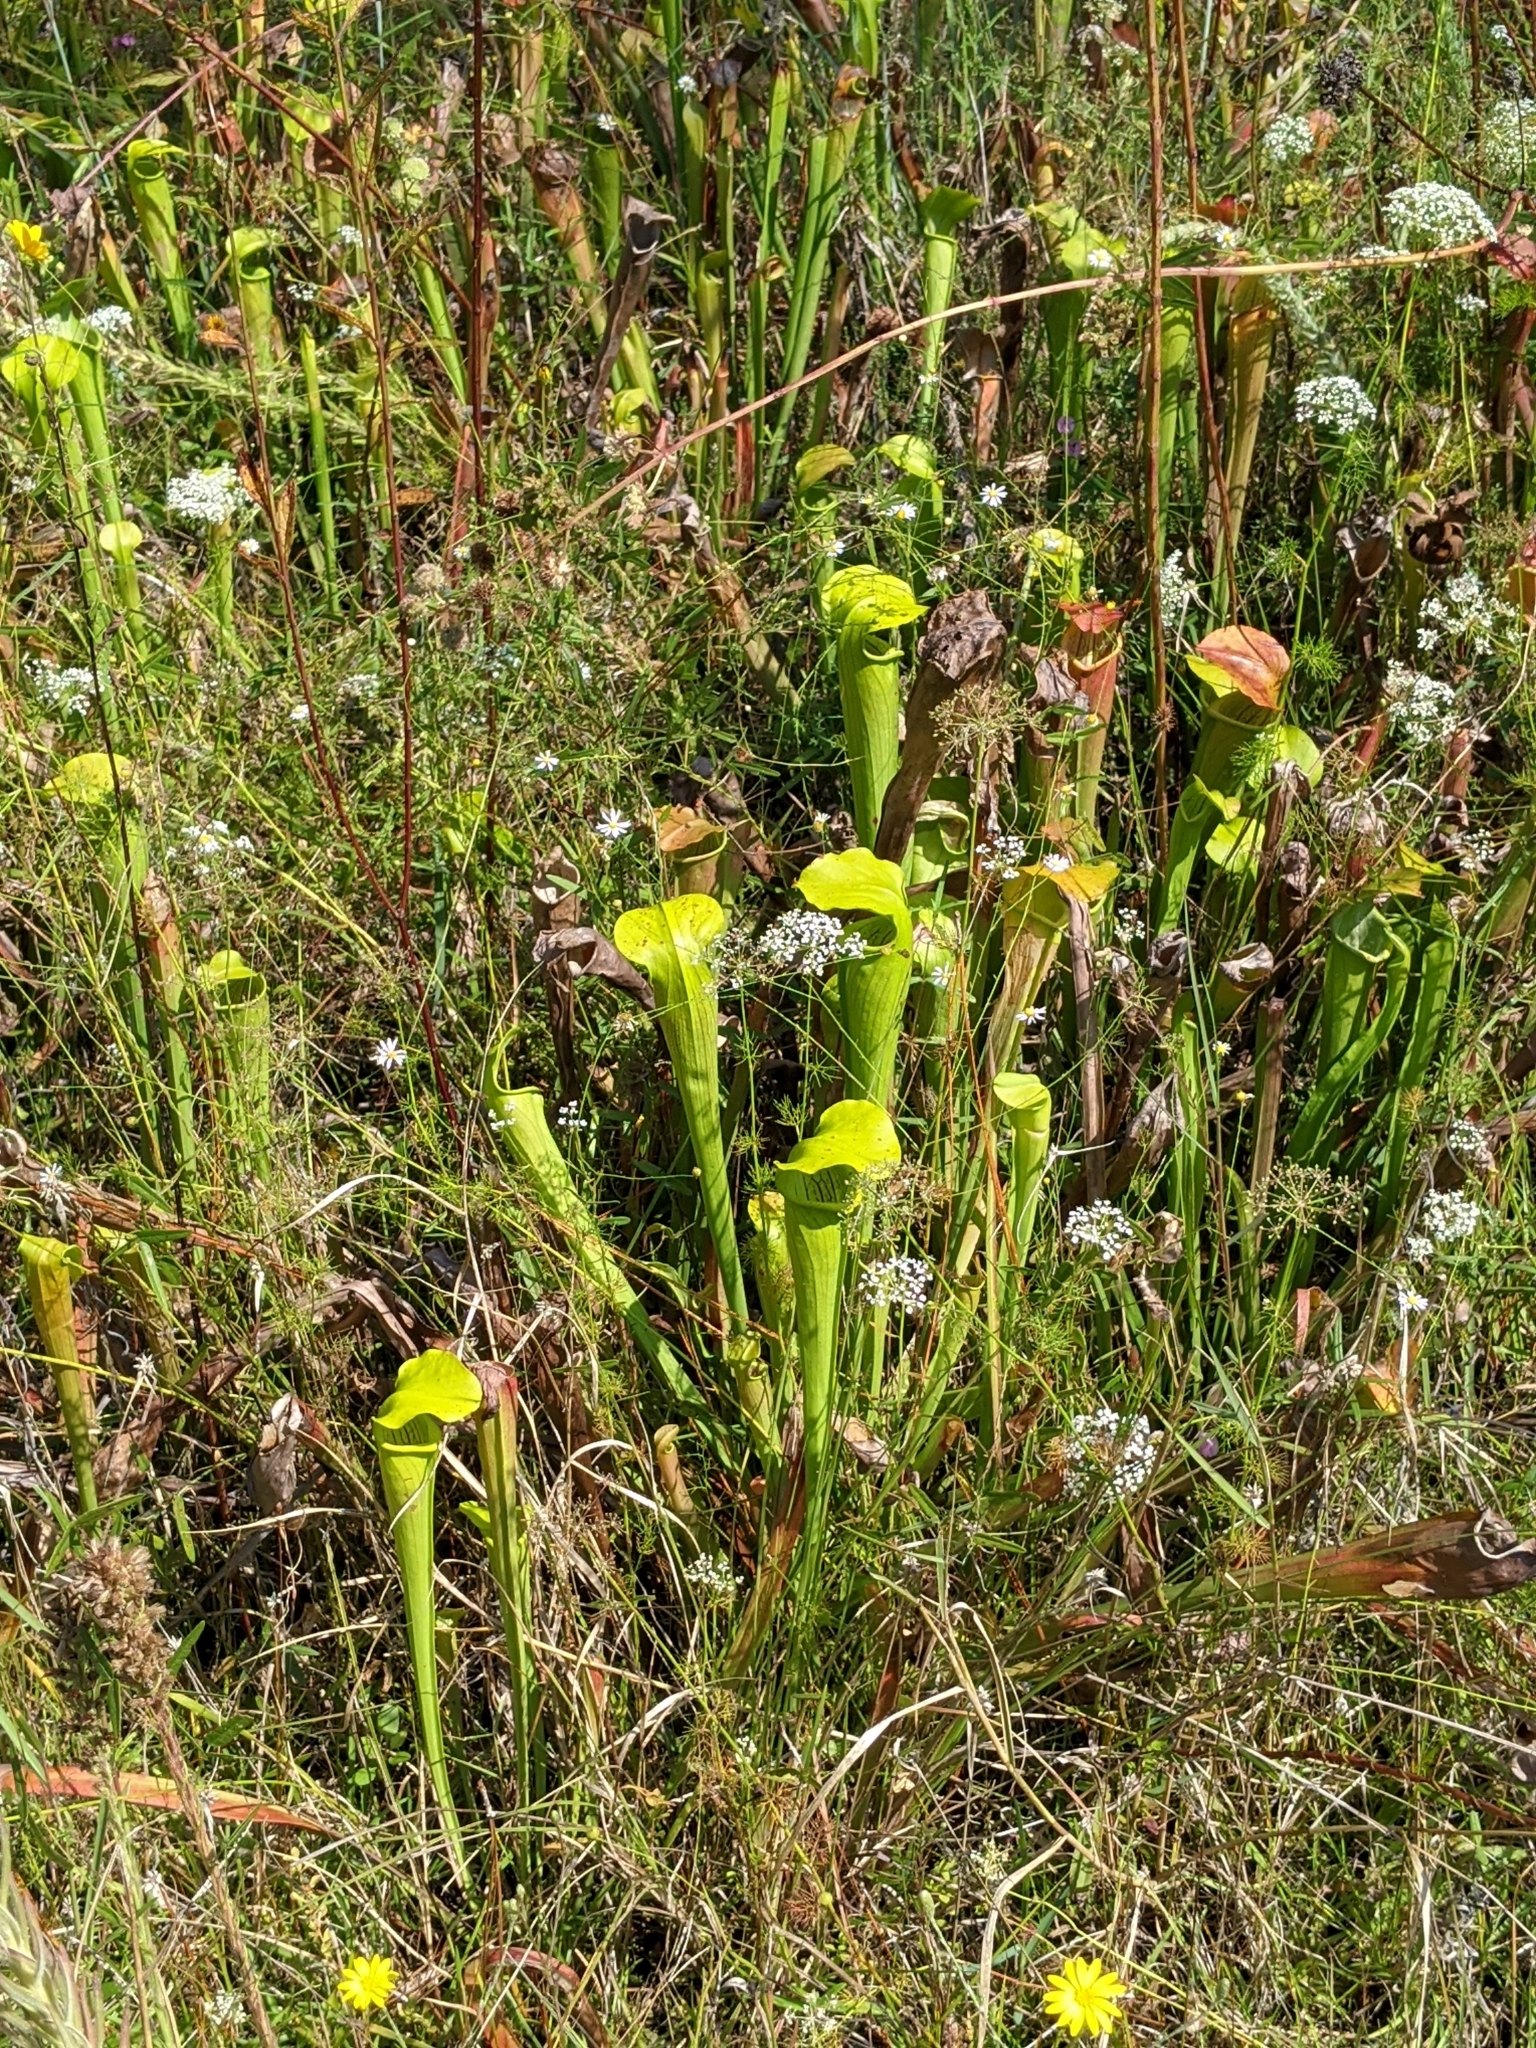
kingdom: Plantae
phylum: Tracheophyta
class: Magnoliopsida
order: Ericales
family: Sarraceniaceae
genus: Sarracenia
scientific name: Sarracenia alata
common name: Yellow trumpets
